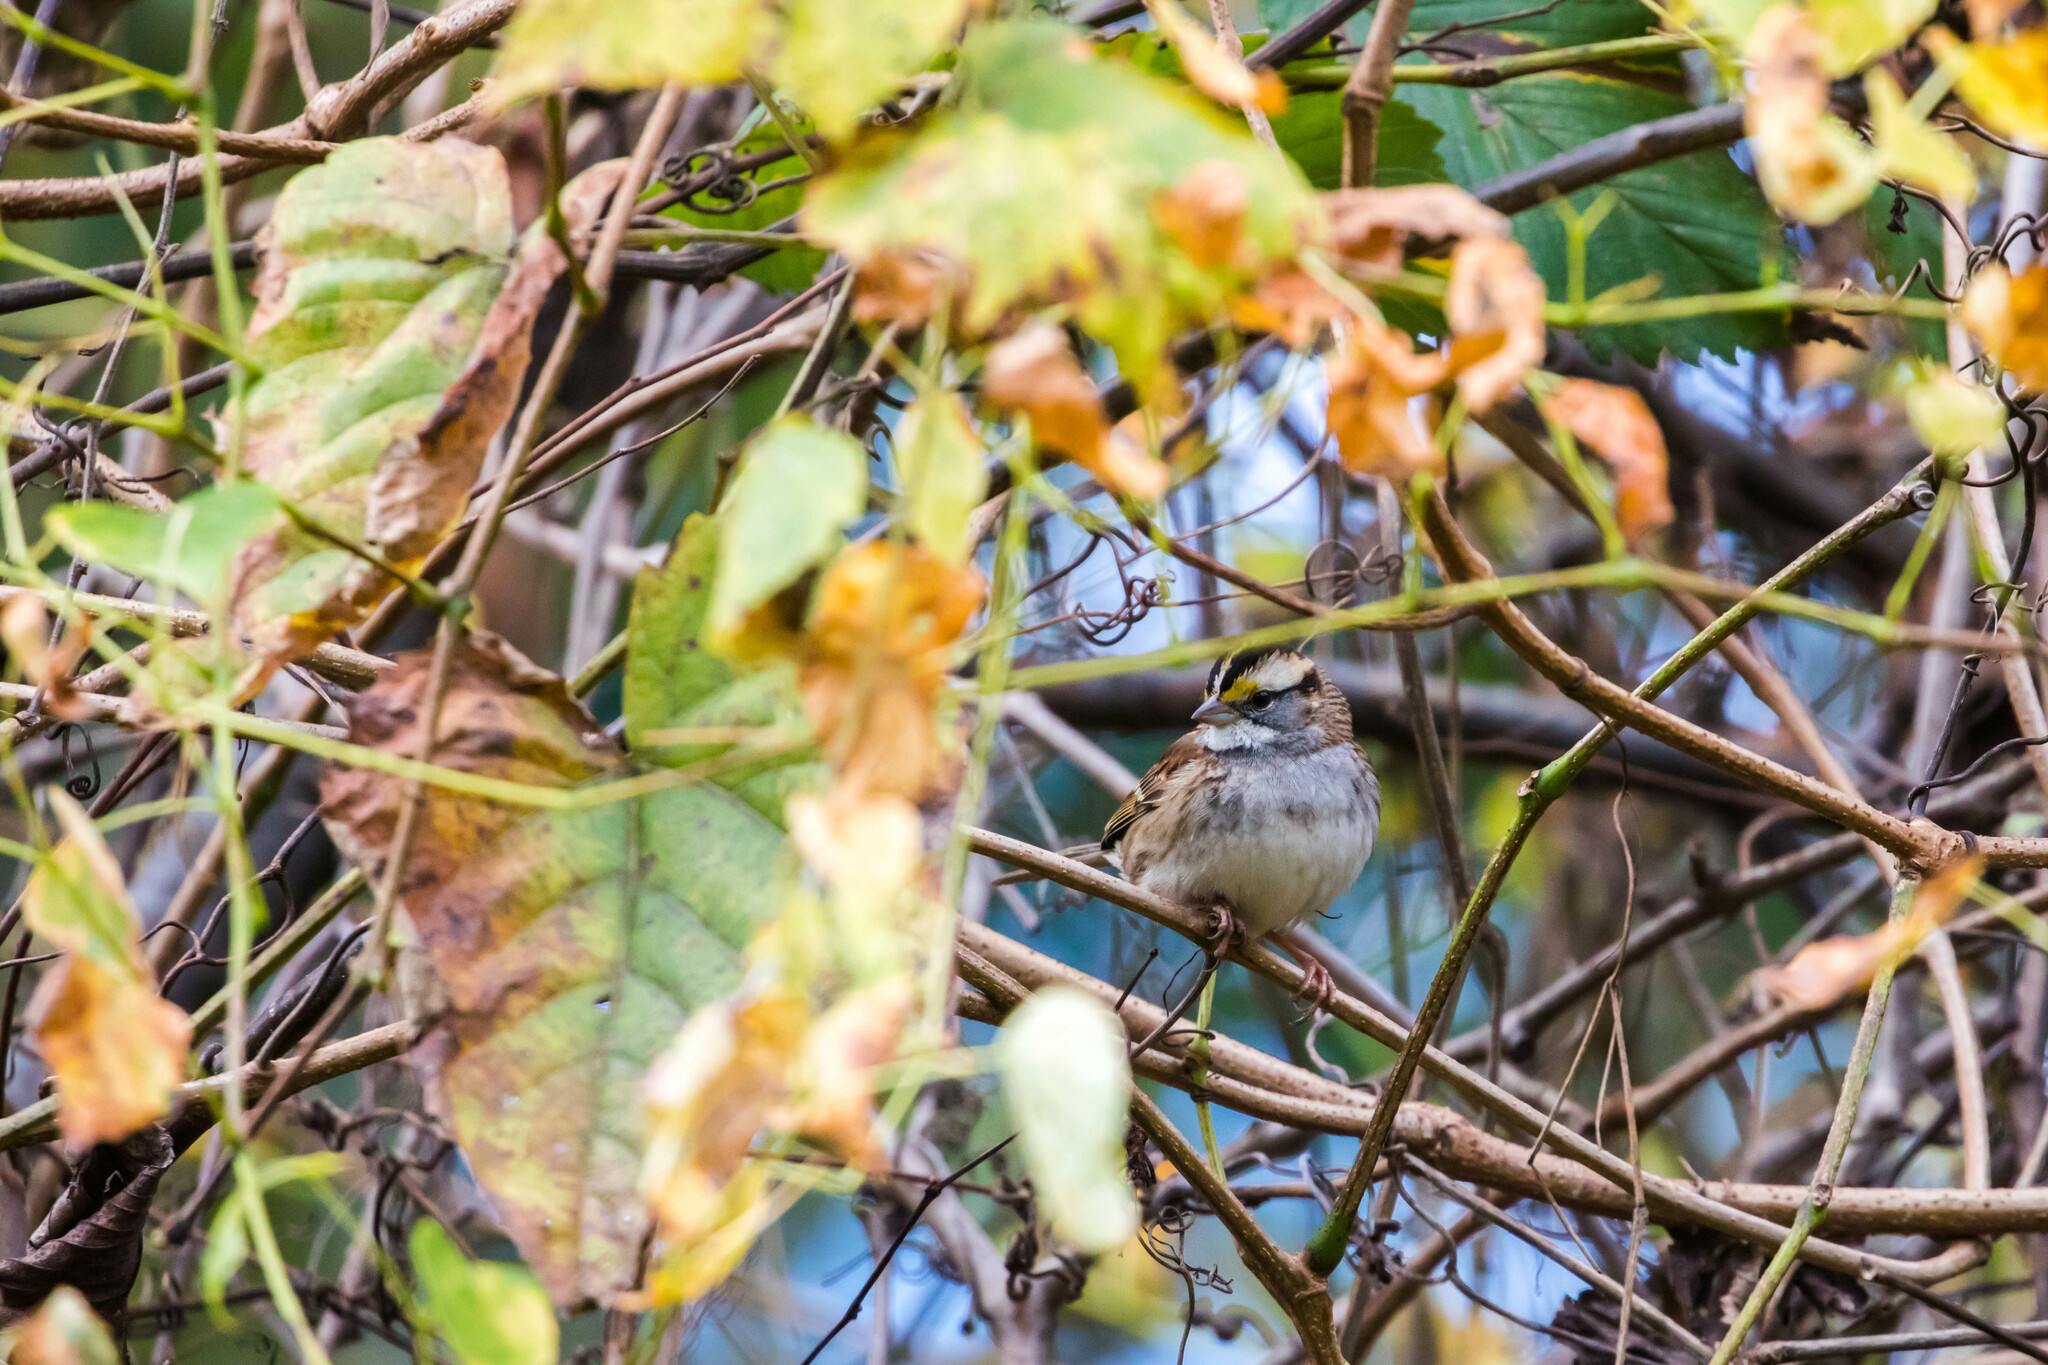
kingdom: Animalia
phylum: Chordata
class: Aves
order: Passeriformes
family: Passerellidae
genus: Zonotrichia
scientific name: Zonotrichia albicollis
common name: White-throated sparrow
